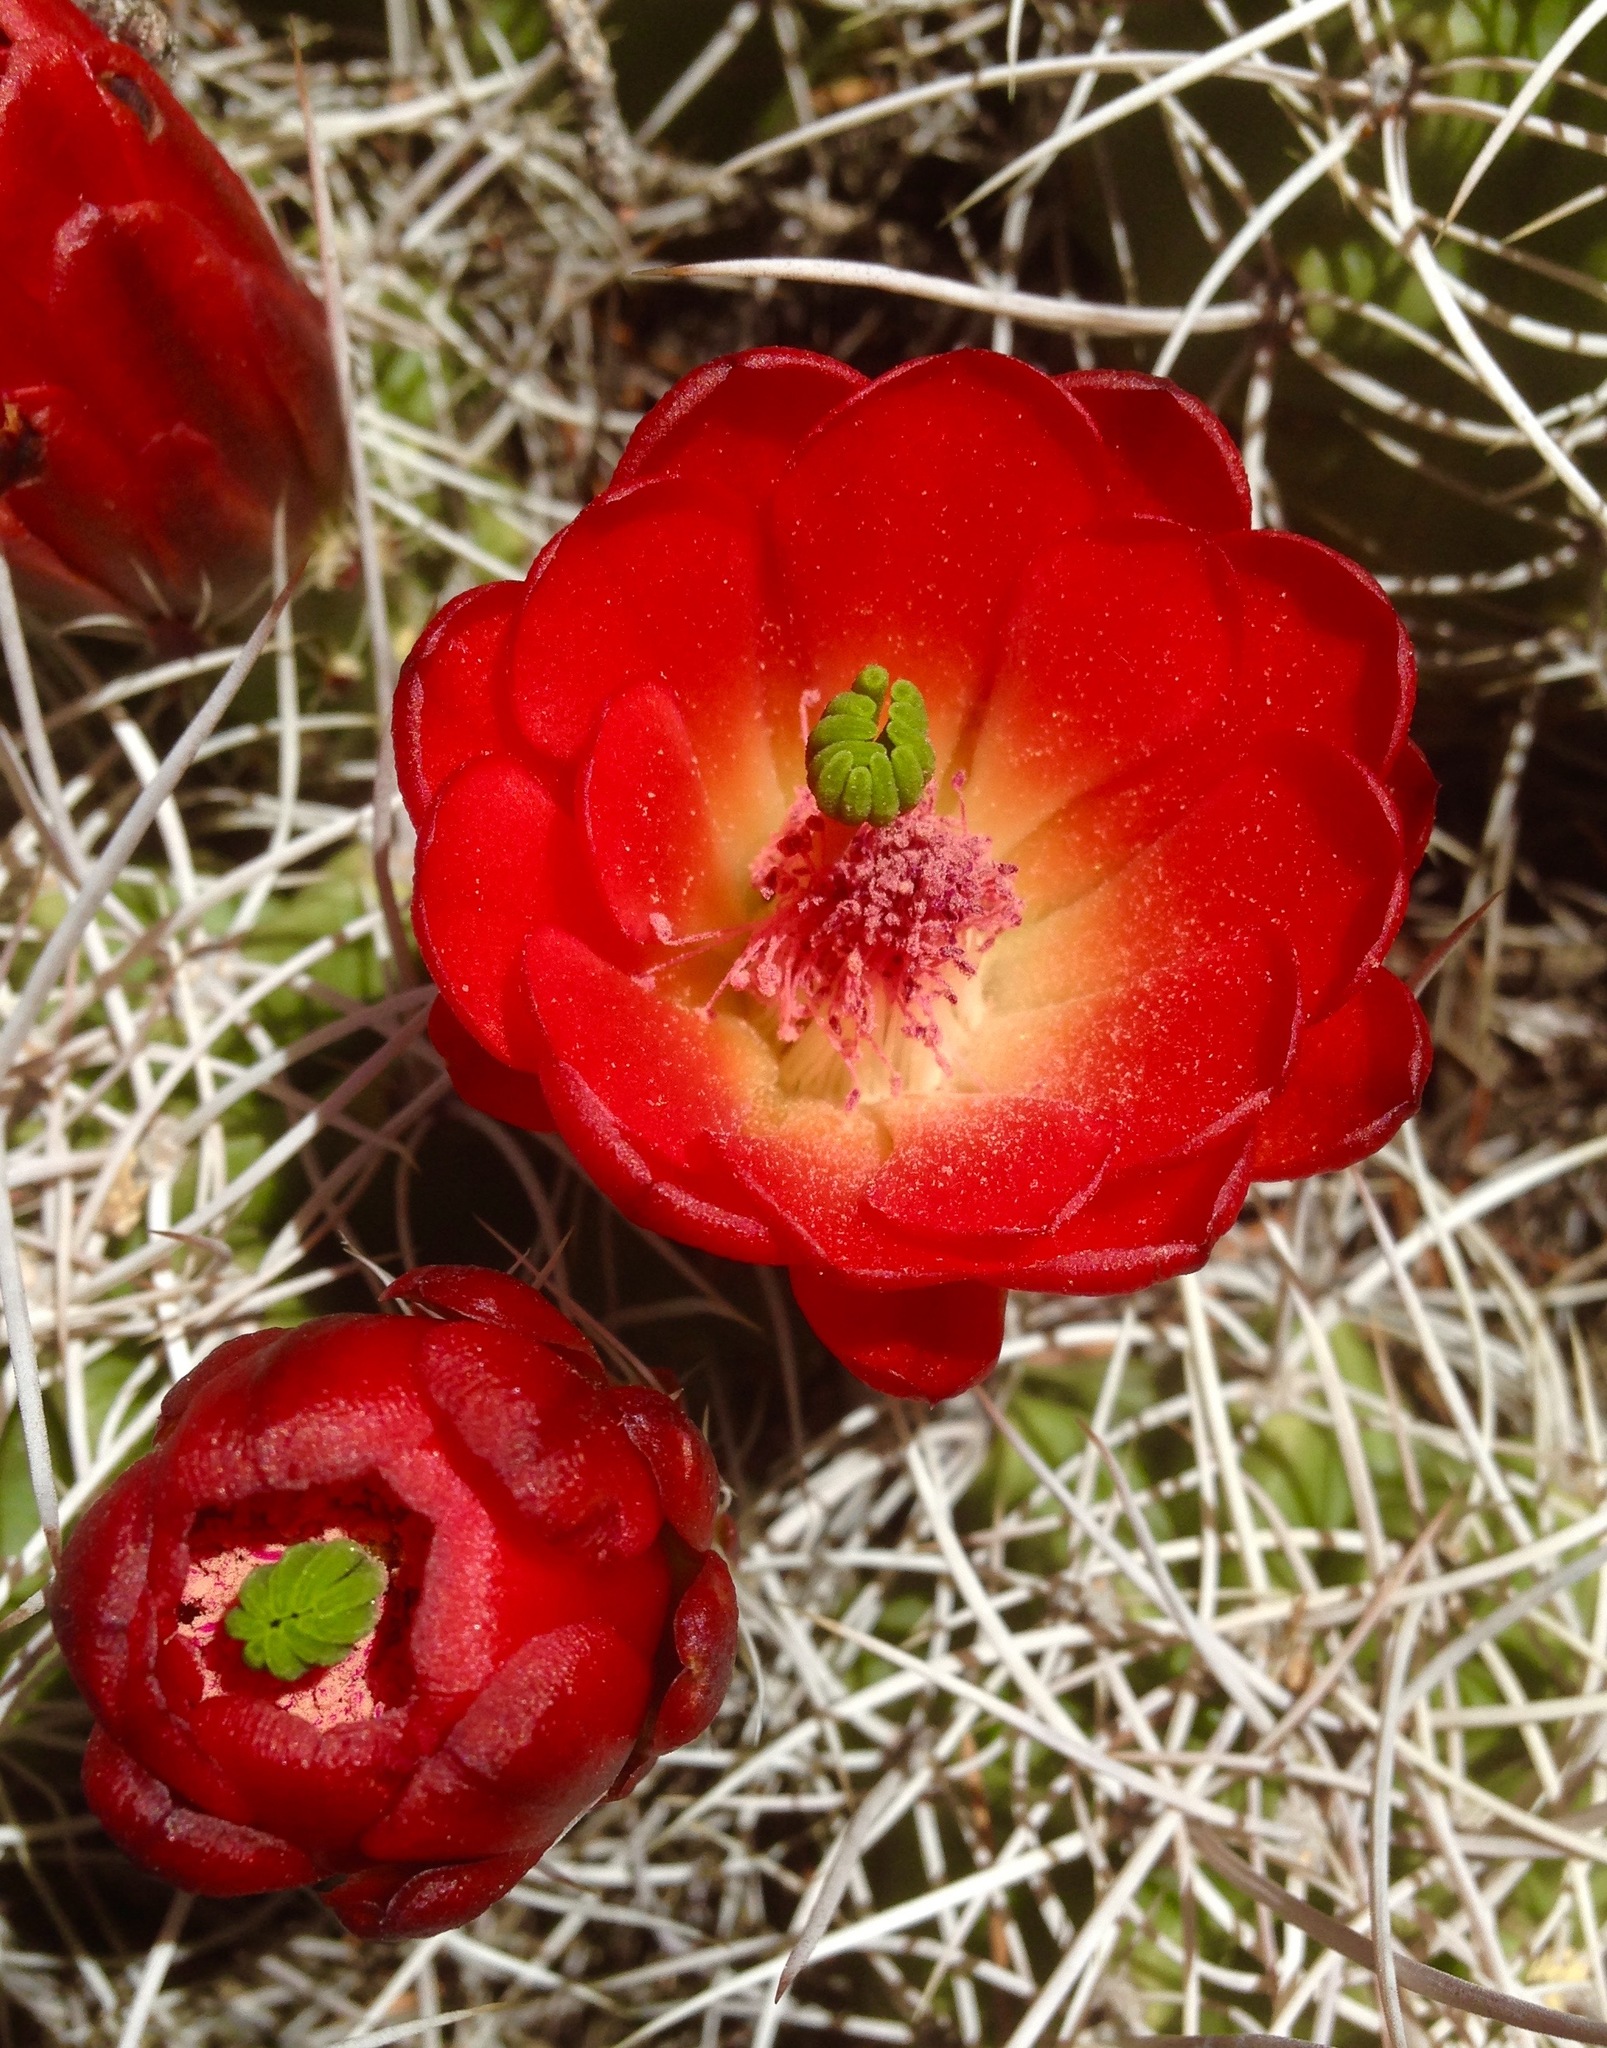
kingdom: Plantae
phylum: Tracheophyta
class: Magnoliopsida
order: Caryophyllales
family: Cactaceae
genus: Echinocereus
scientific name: Echinocereus triglochidiatus
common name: Claretcup hedgehog
